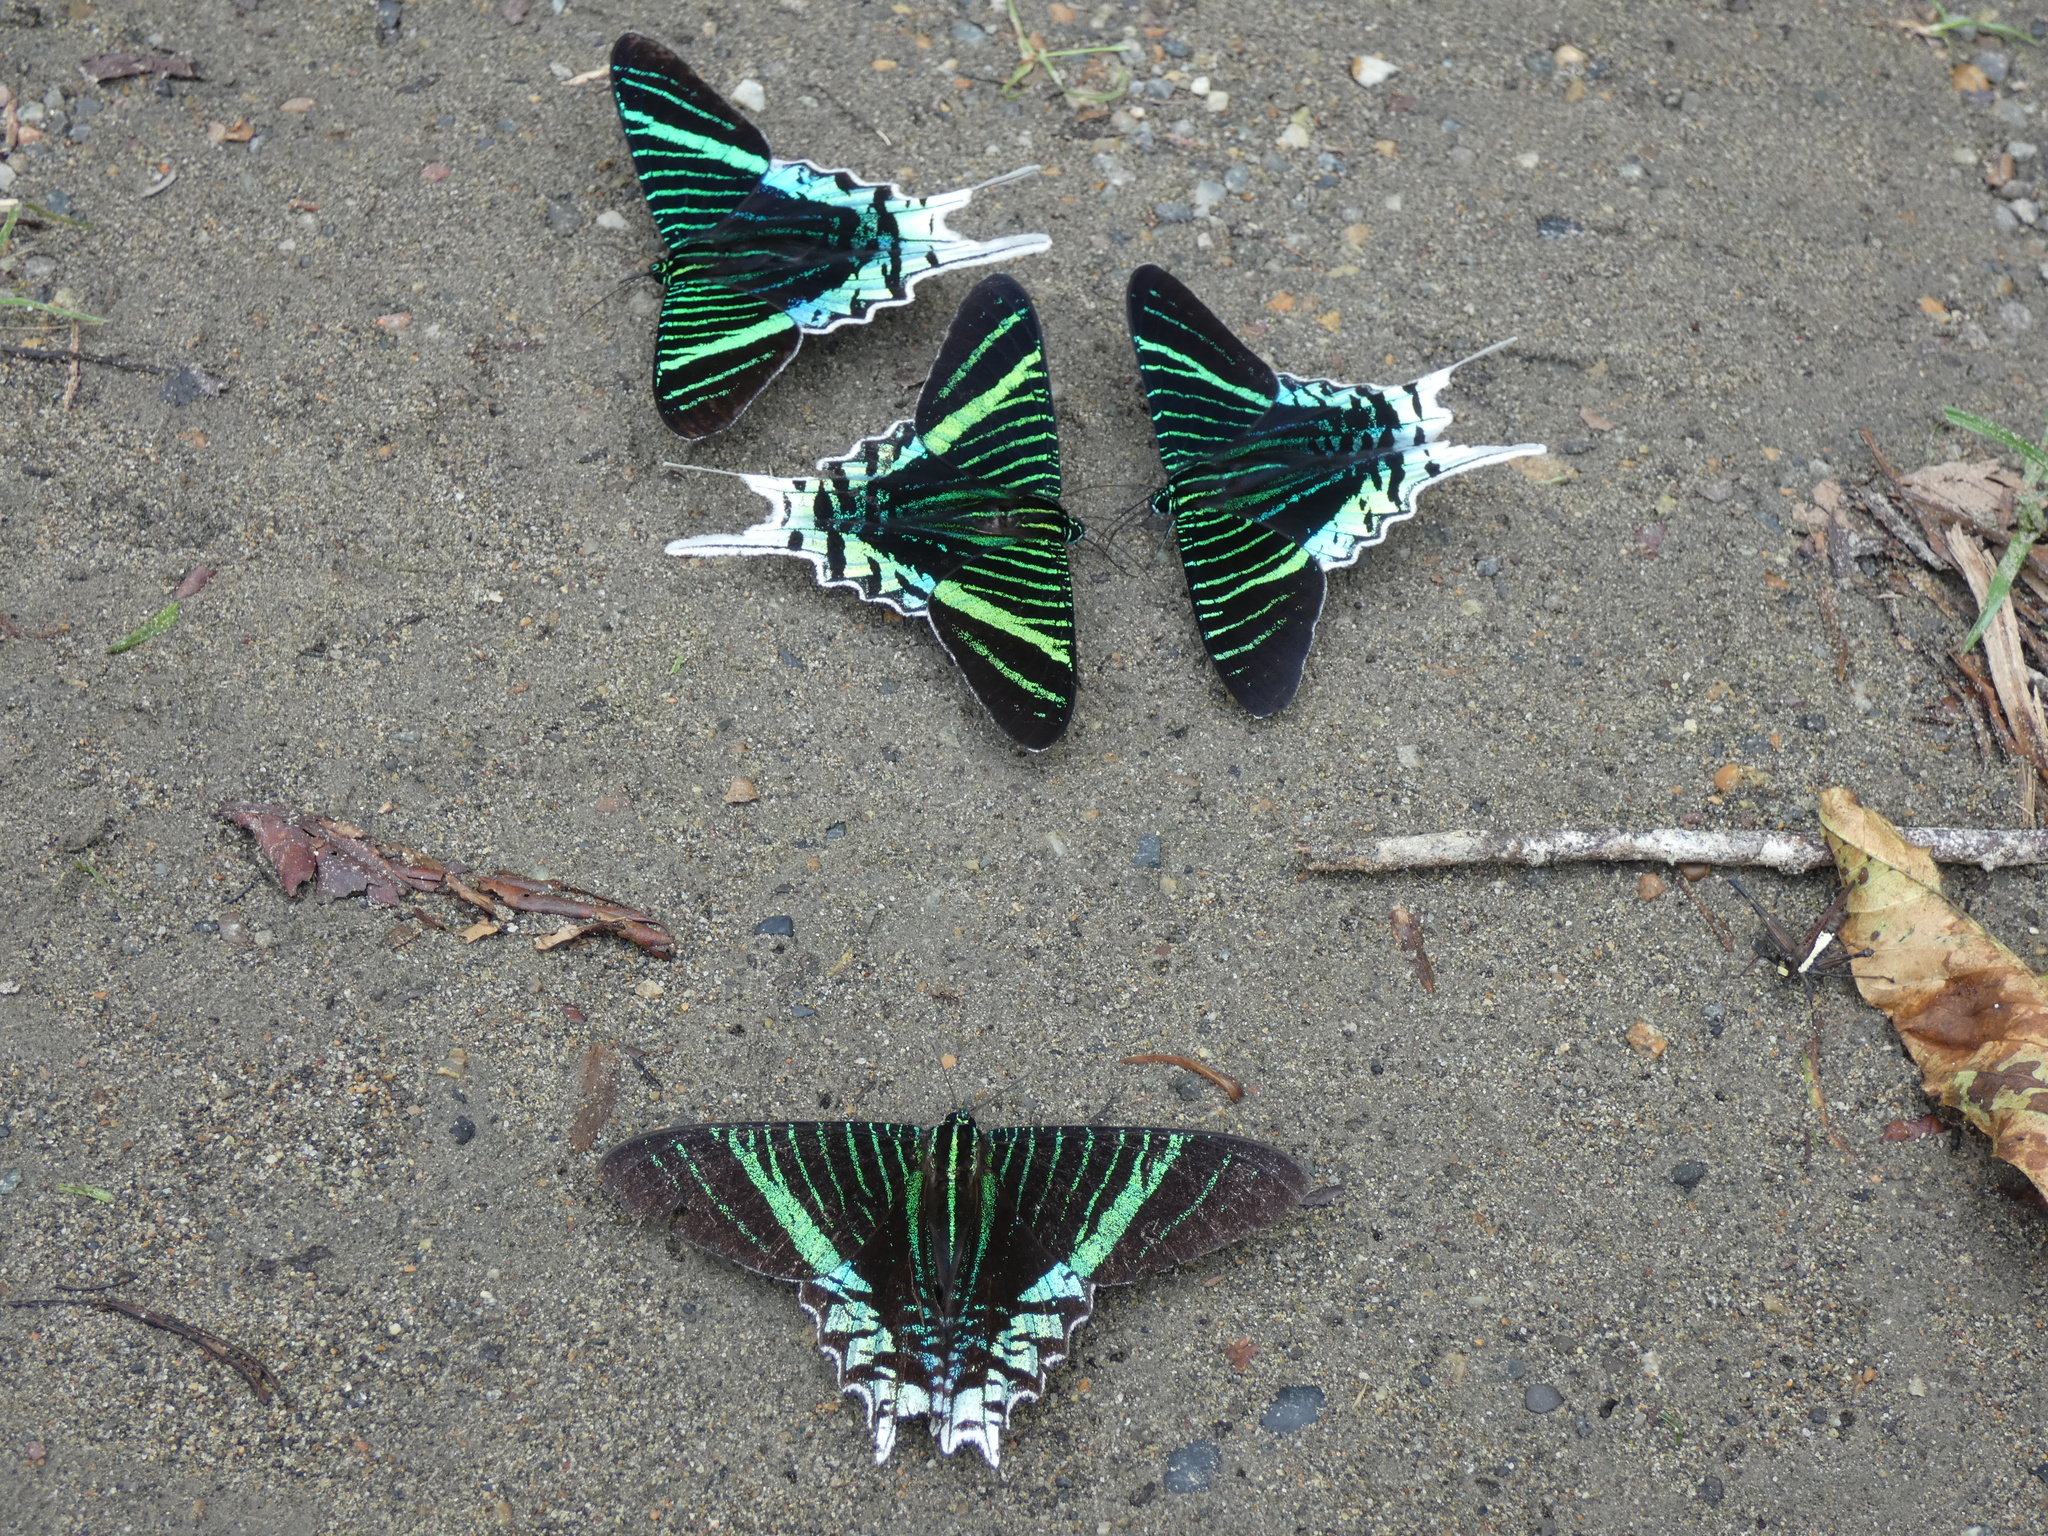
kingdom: Animalia
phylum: Arthropoda
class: Insecta
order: Lepidoptera
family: Uraniidae
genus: Urania
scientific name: Urania leilus
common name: Peacock moth
